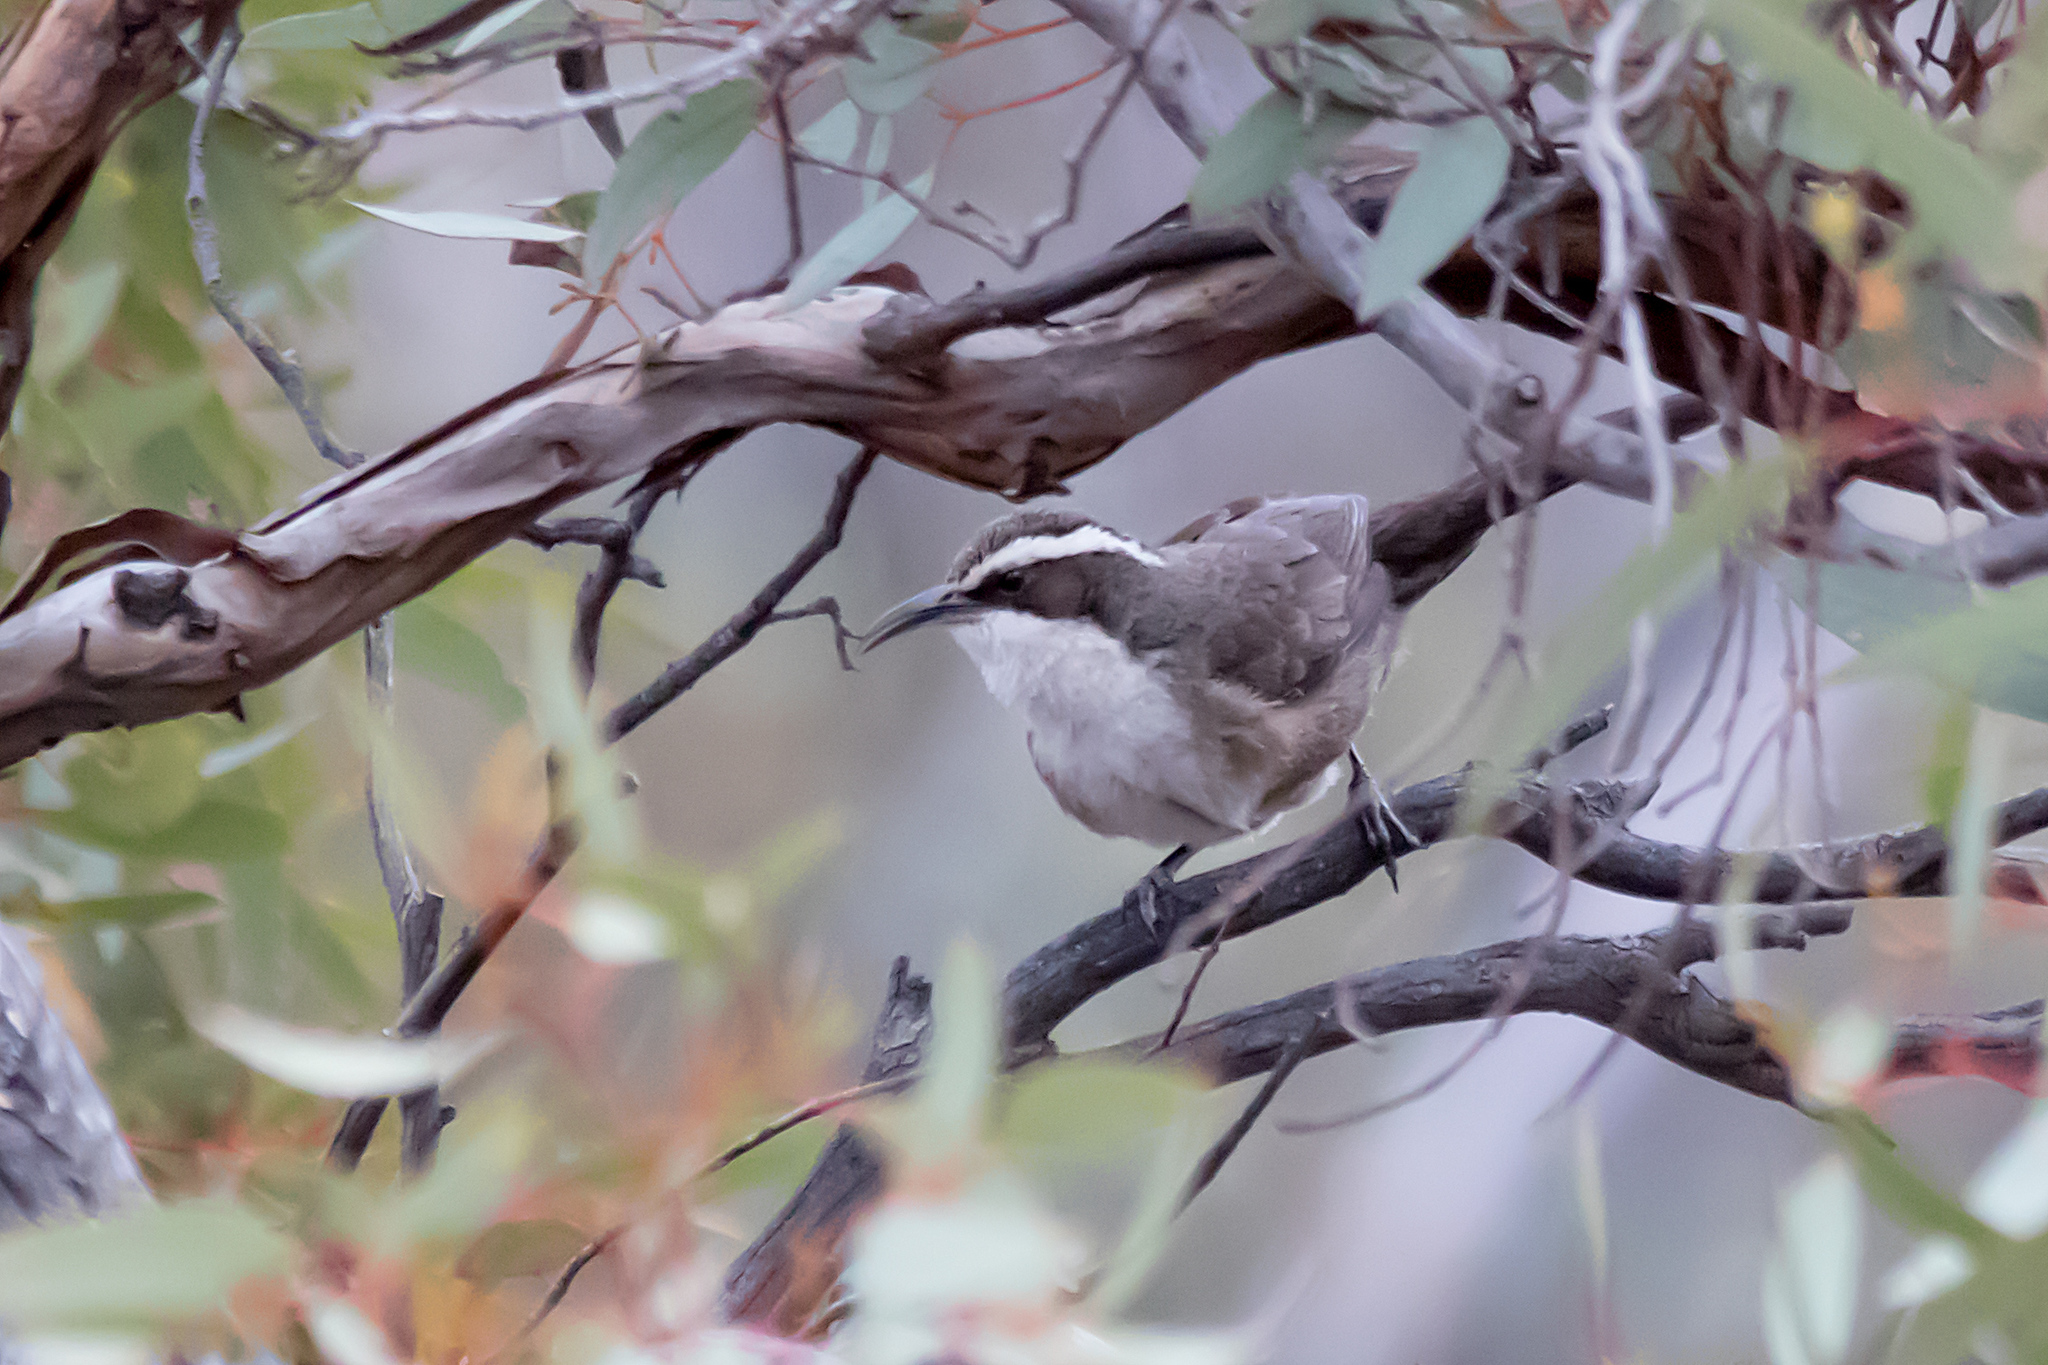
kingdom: Animalia
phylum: Chordata
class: Aves
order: Passeriformes
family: Pomatostomidae
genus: Pomatostomus
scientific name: Pomatostomus superciliosus
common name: White-browed babbler
